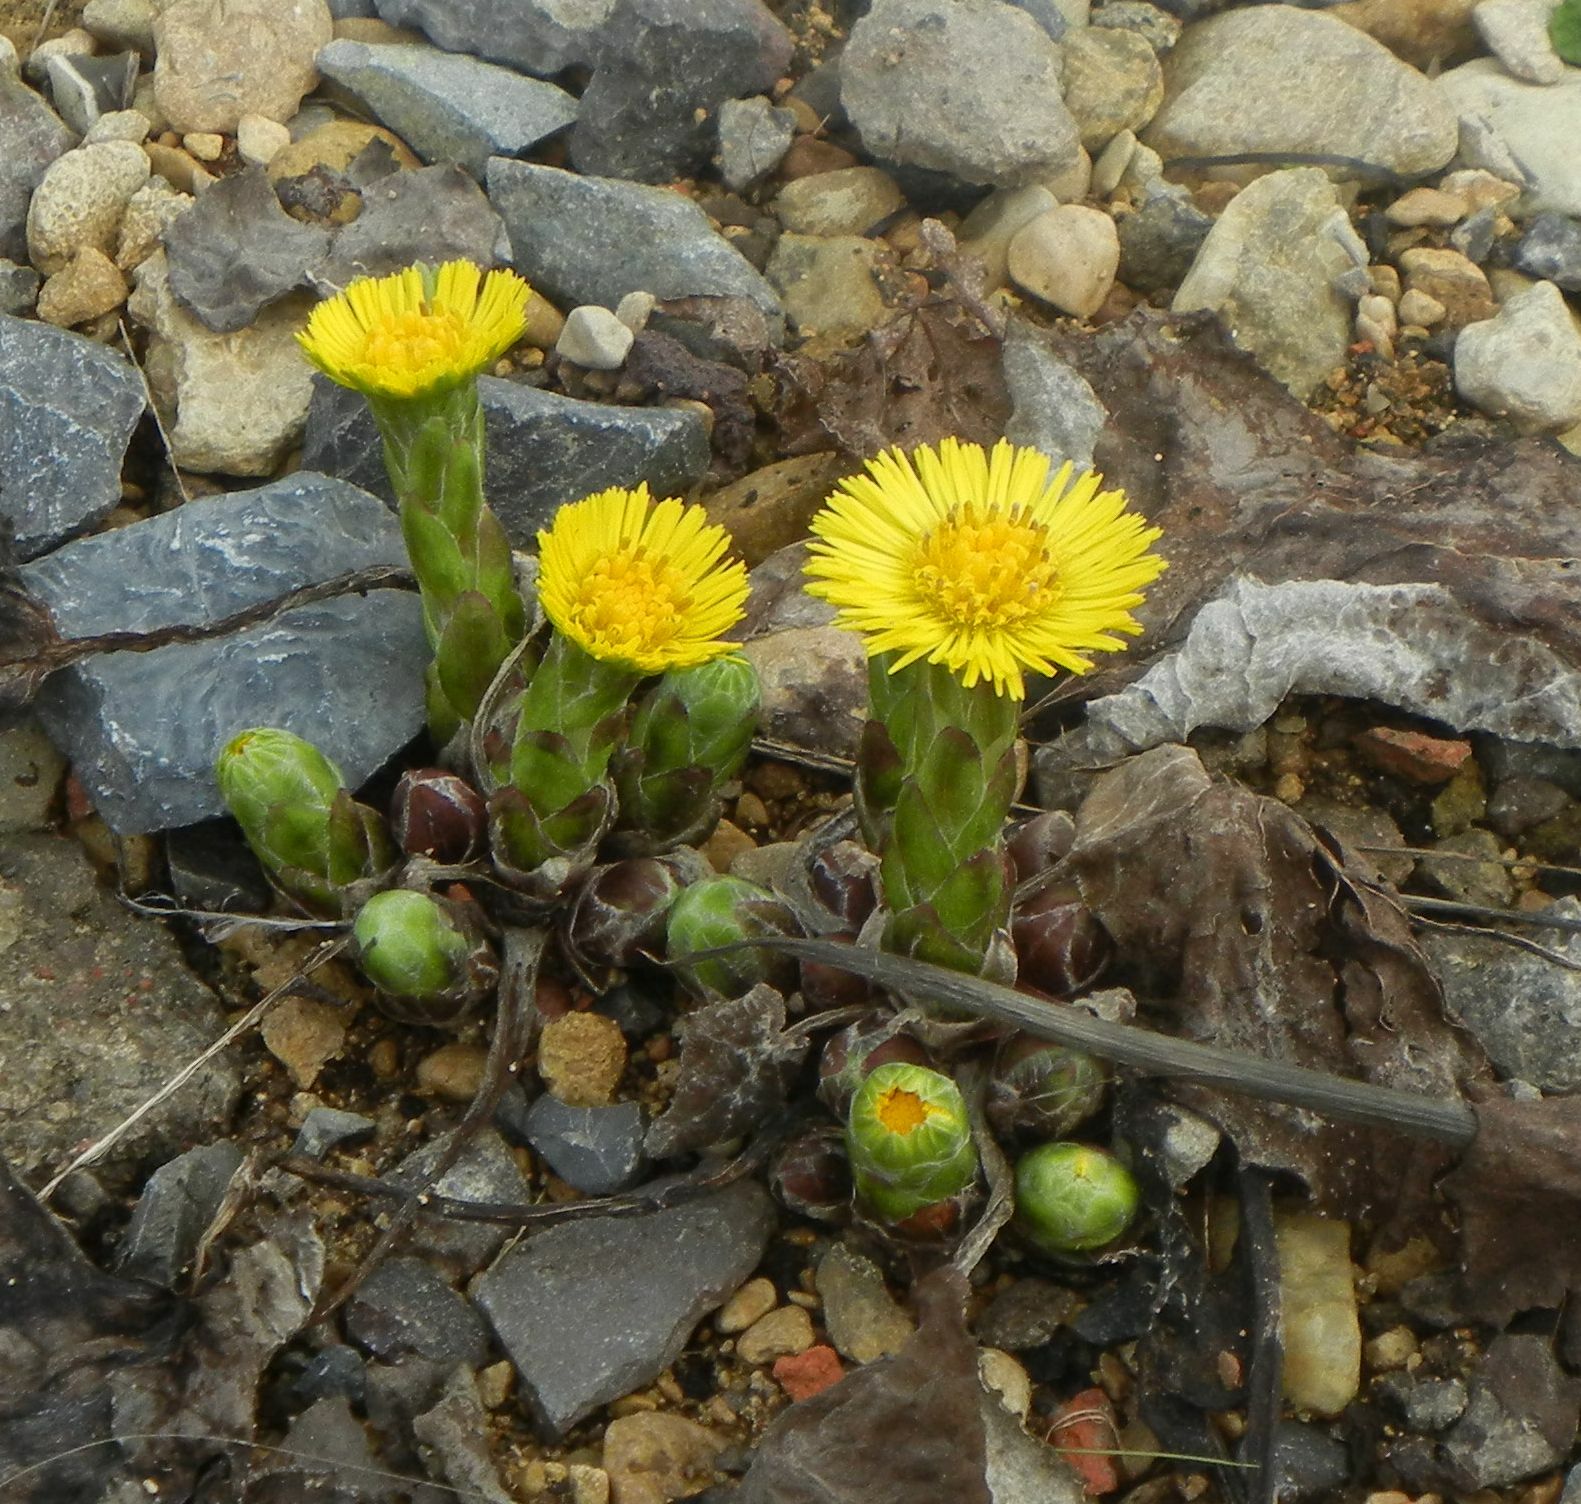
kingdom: Plantae
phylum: Tracheophyta
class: Magnoliopsida
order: Asterales
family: Asteraceae
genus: Tussilago
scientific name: Tussilago farfara
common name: Coltsfoot
